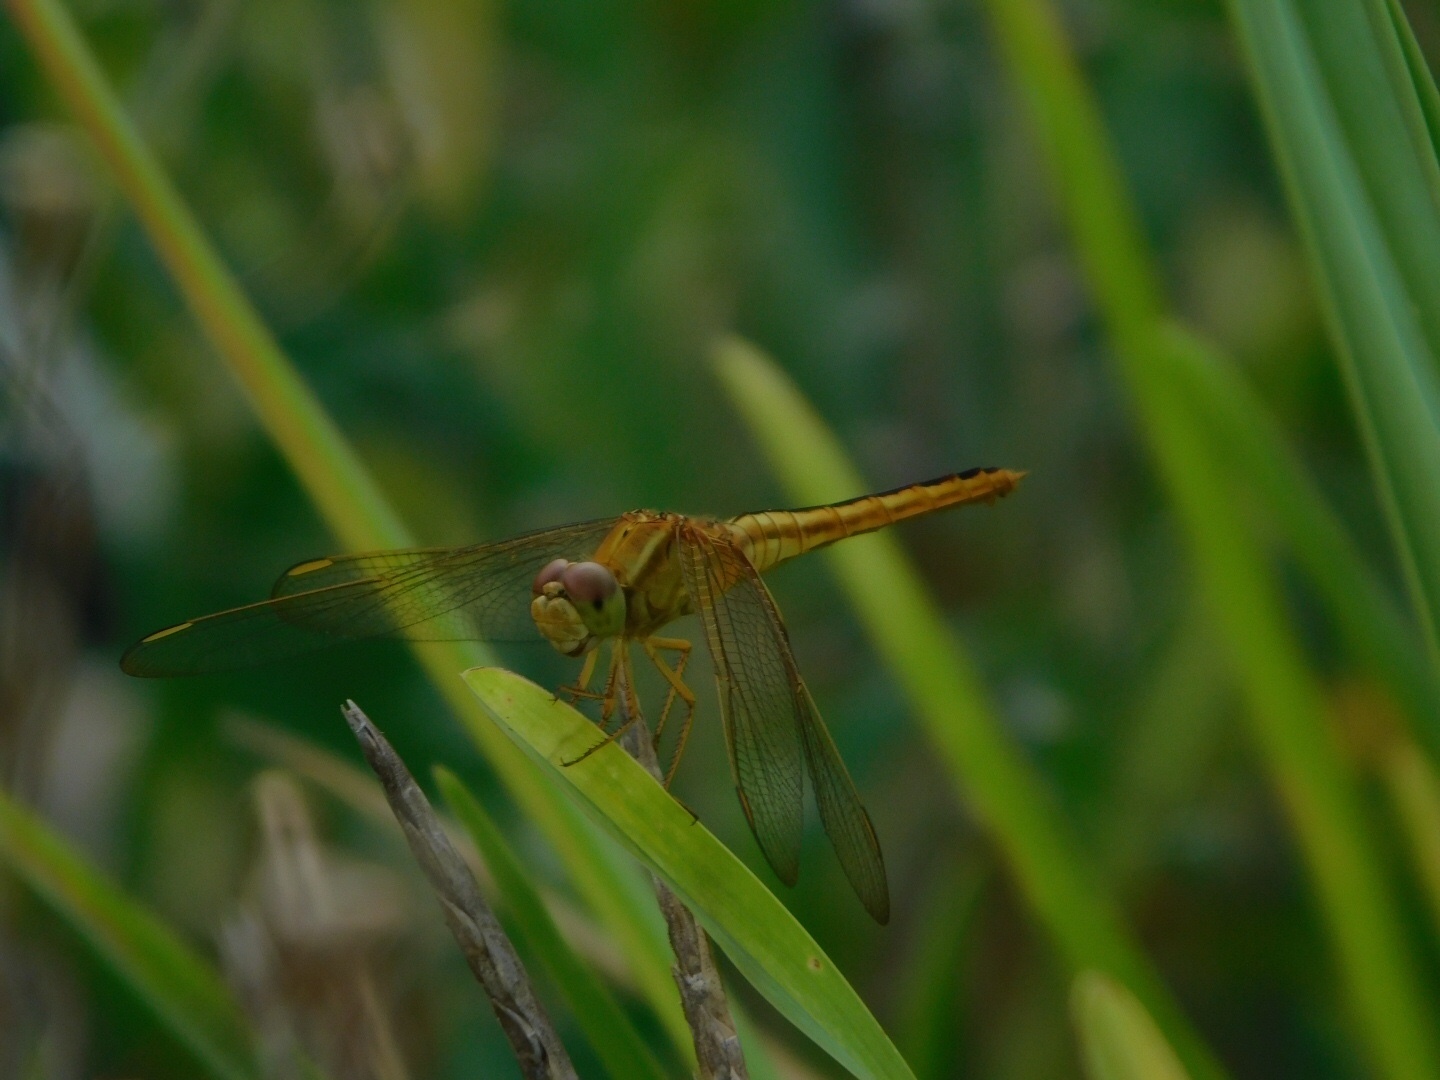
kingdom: Animalia
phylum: Arthropoda
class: Insecta
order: Odonata
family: Libellulidae
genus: Crocothemis
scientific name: Crocothemis servilia
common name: Scarlet skimmer
